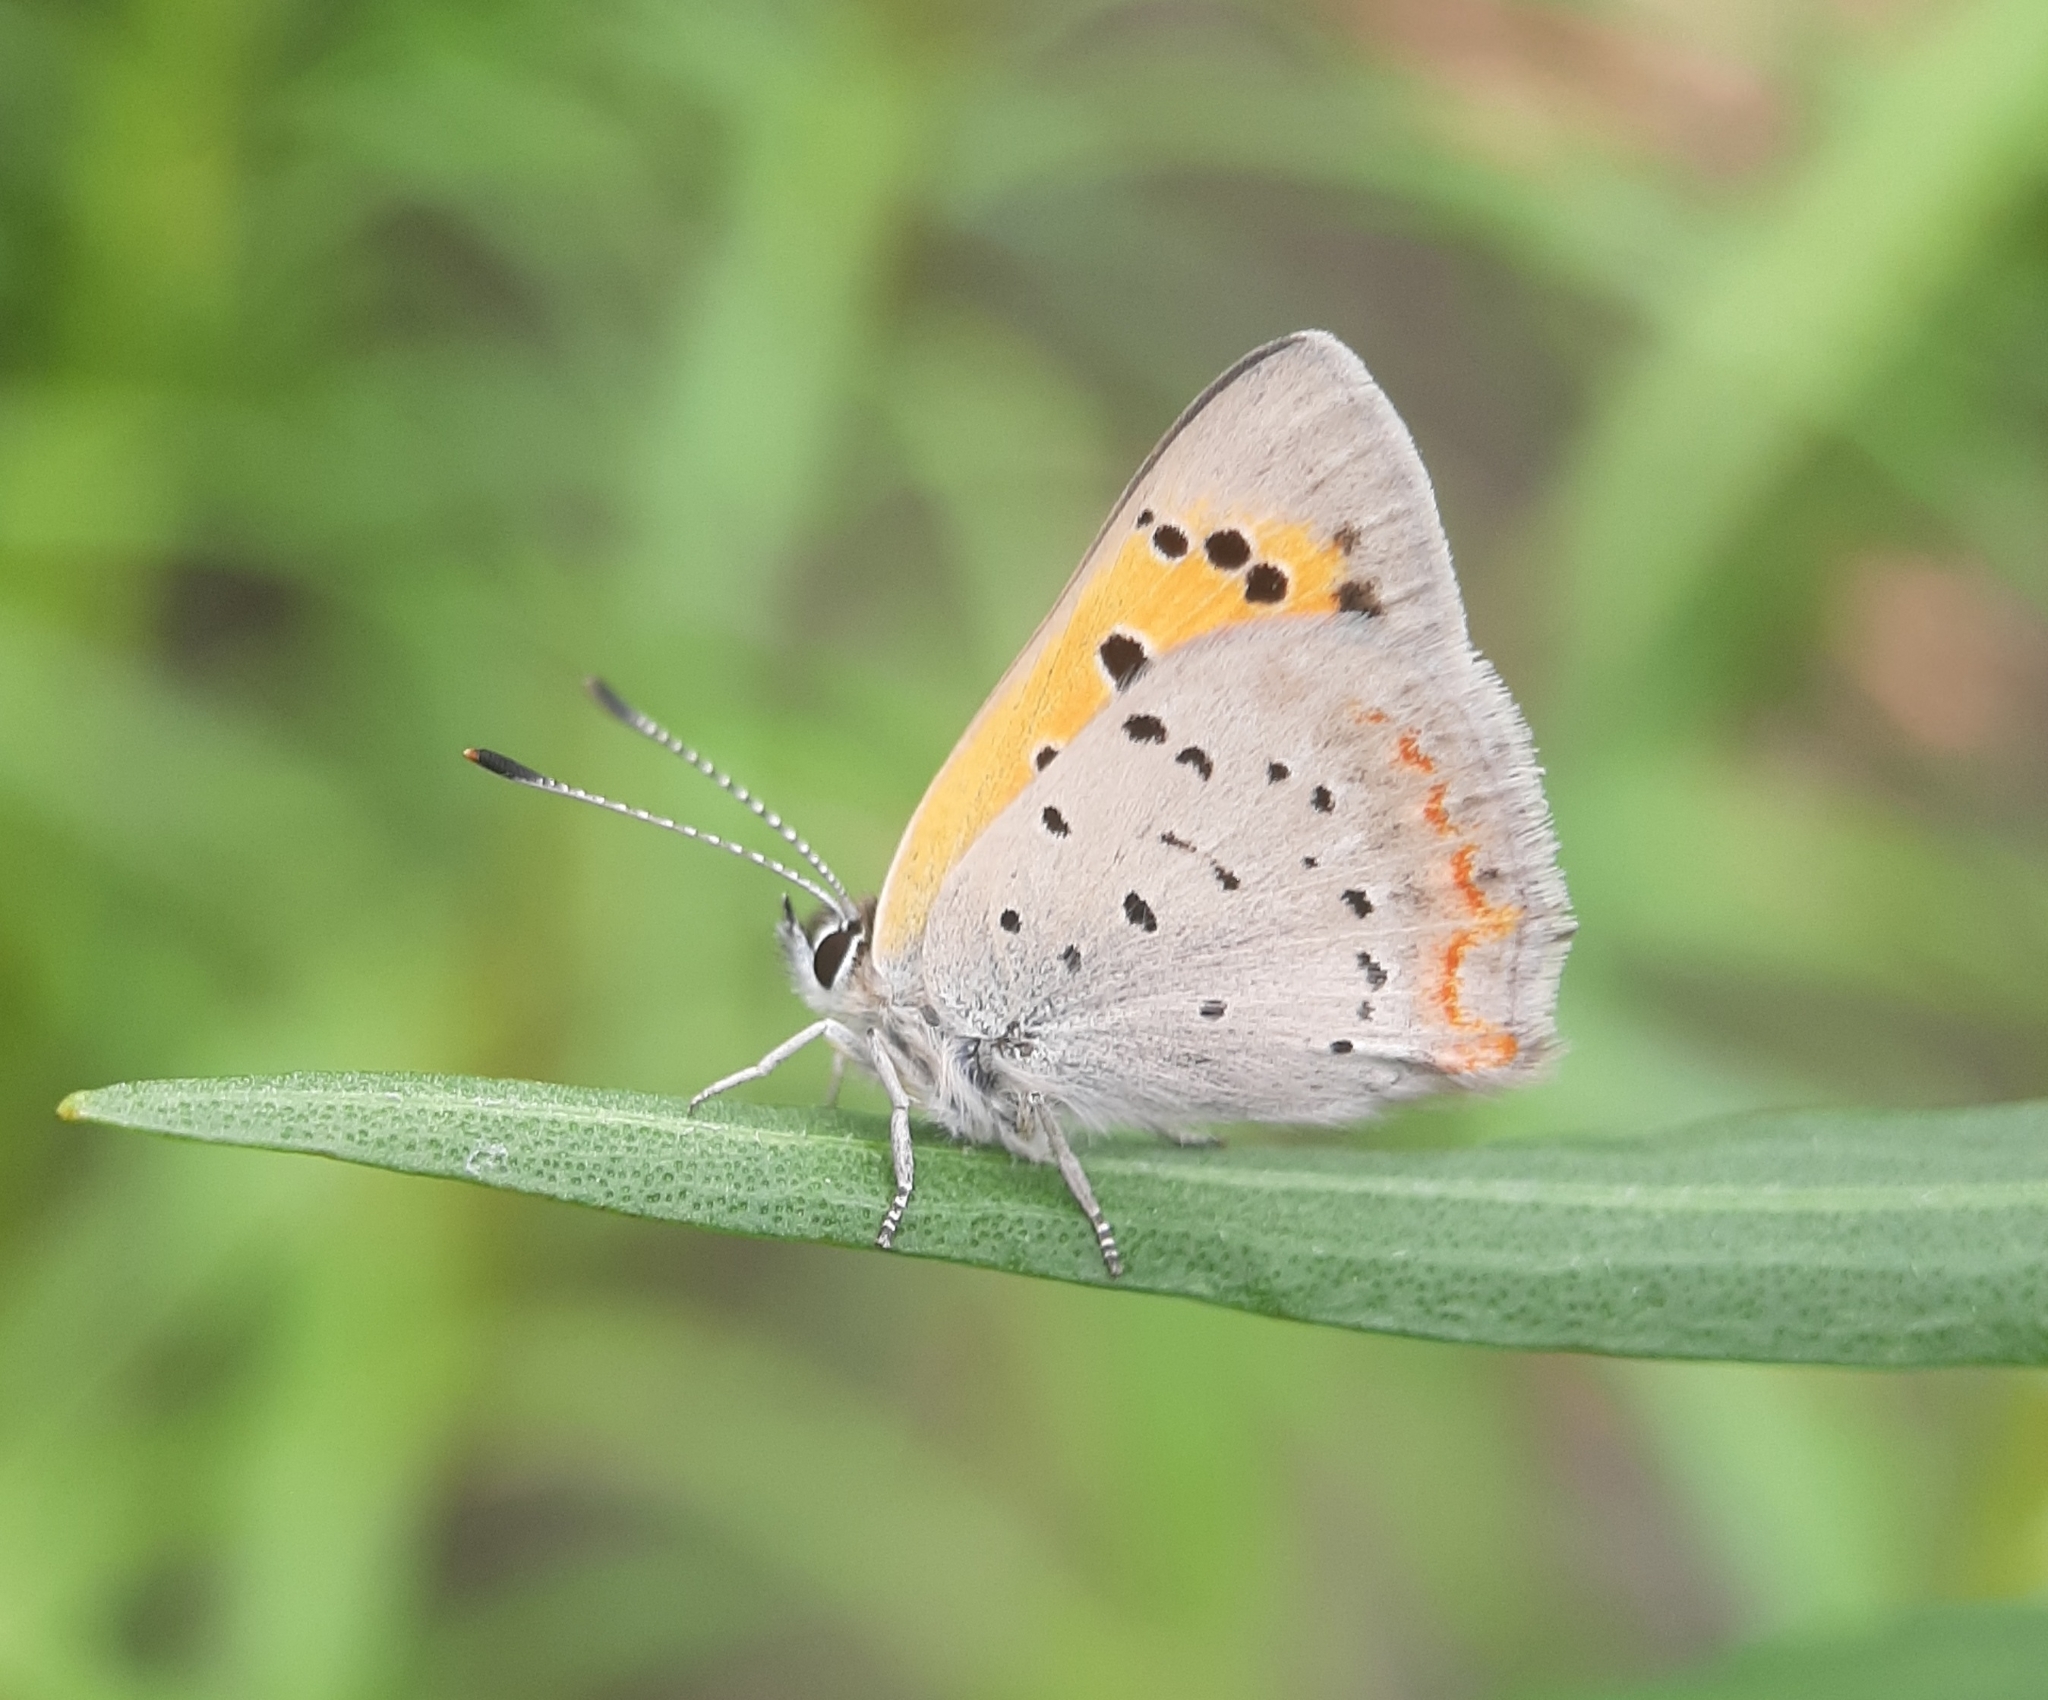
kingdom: Animalia
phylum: Arthropoda
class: Insecta
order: Lepidoptera
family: Lycaenidae
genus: Lycaena
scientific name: Lycaena hypophlaeas
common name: American copper
